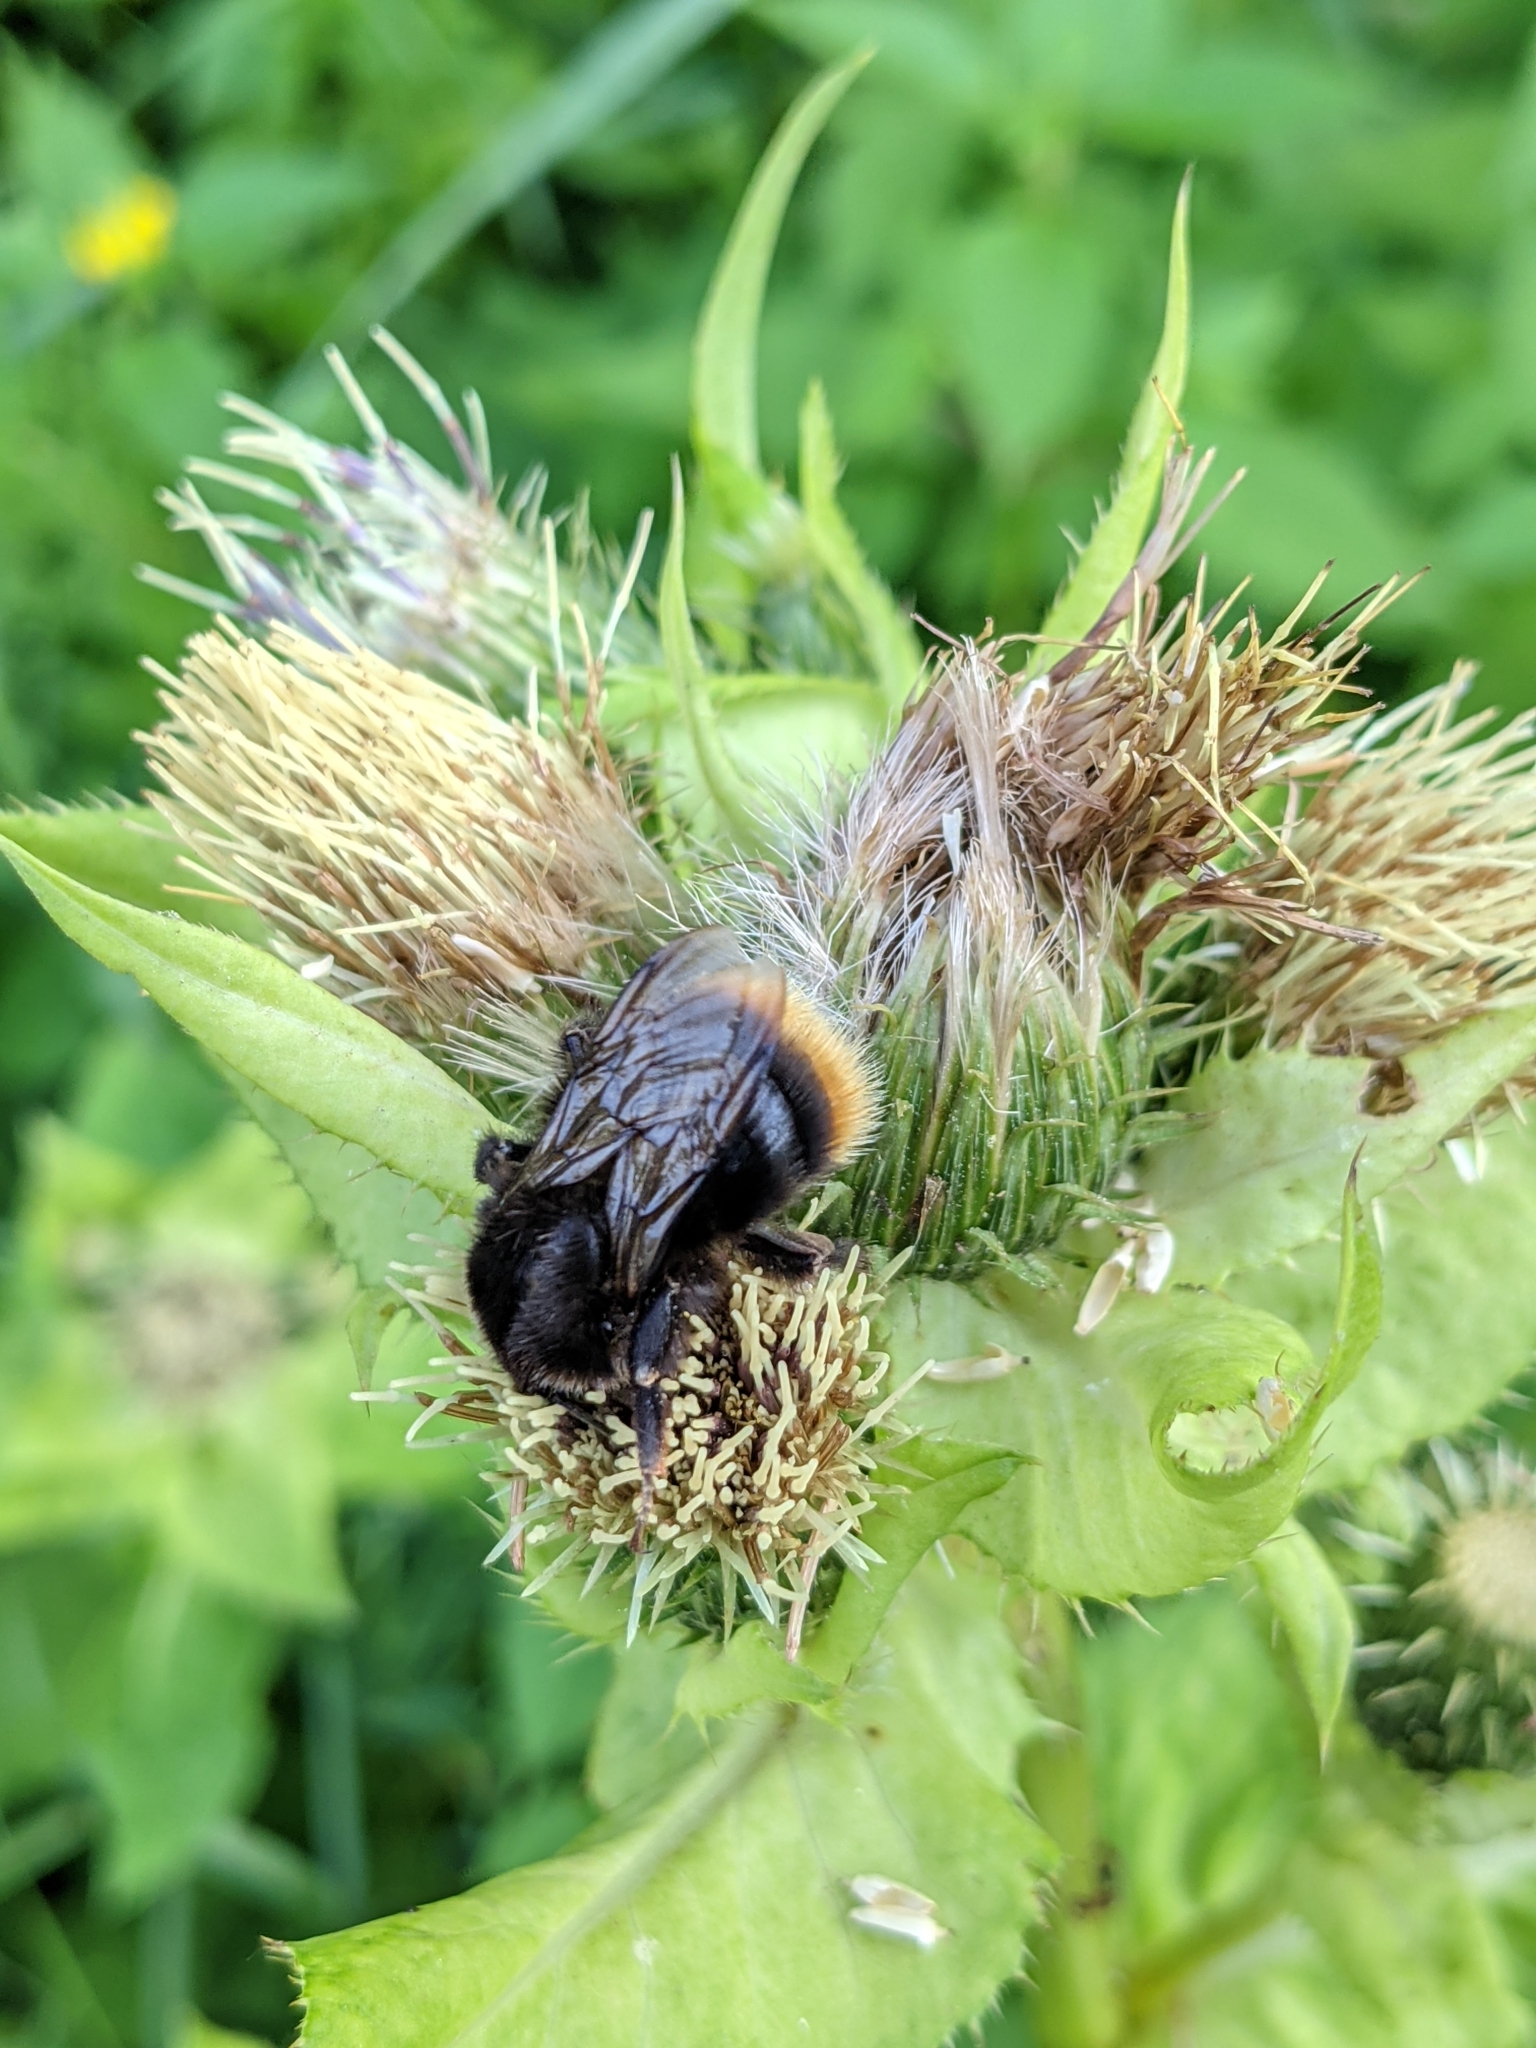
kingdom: Animalia
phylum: Arthropoda
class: Insecta
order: Hymenoptera
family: Apidae
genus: Bombus
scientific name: Bombus rupestris
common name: Hill cuckoo-bee
